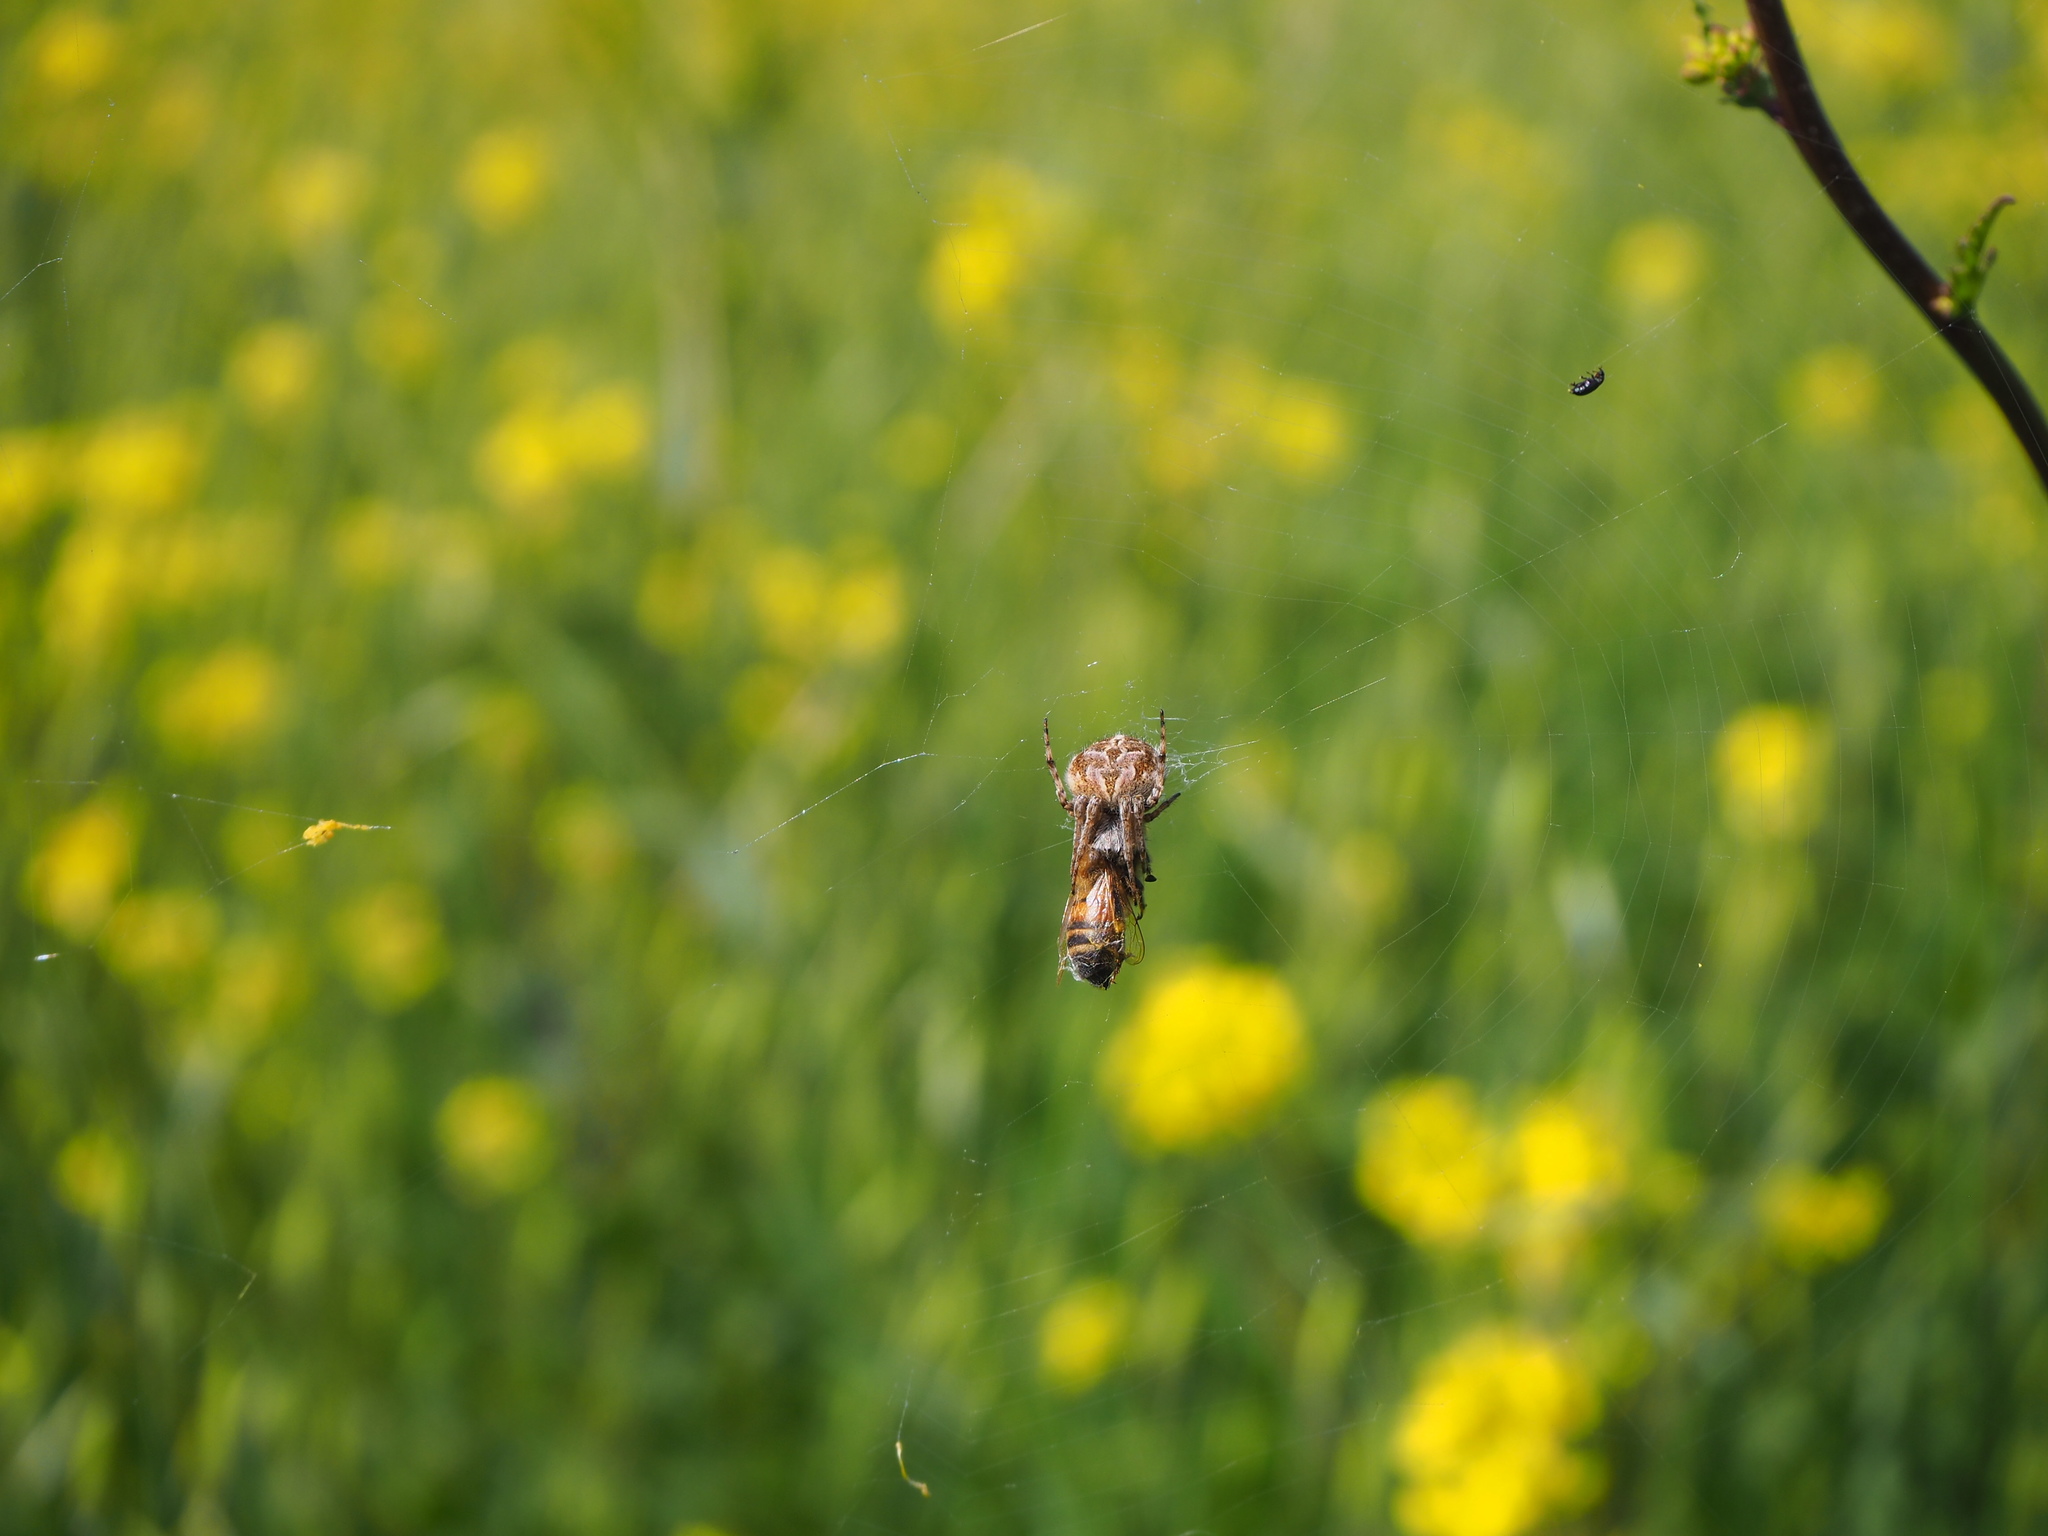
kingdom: Animalia
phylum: Arthropoda
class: Arachnida
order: Araneae
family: Araneidae
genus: Agalenatea
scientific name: Agalenatea redii
